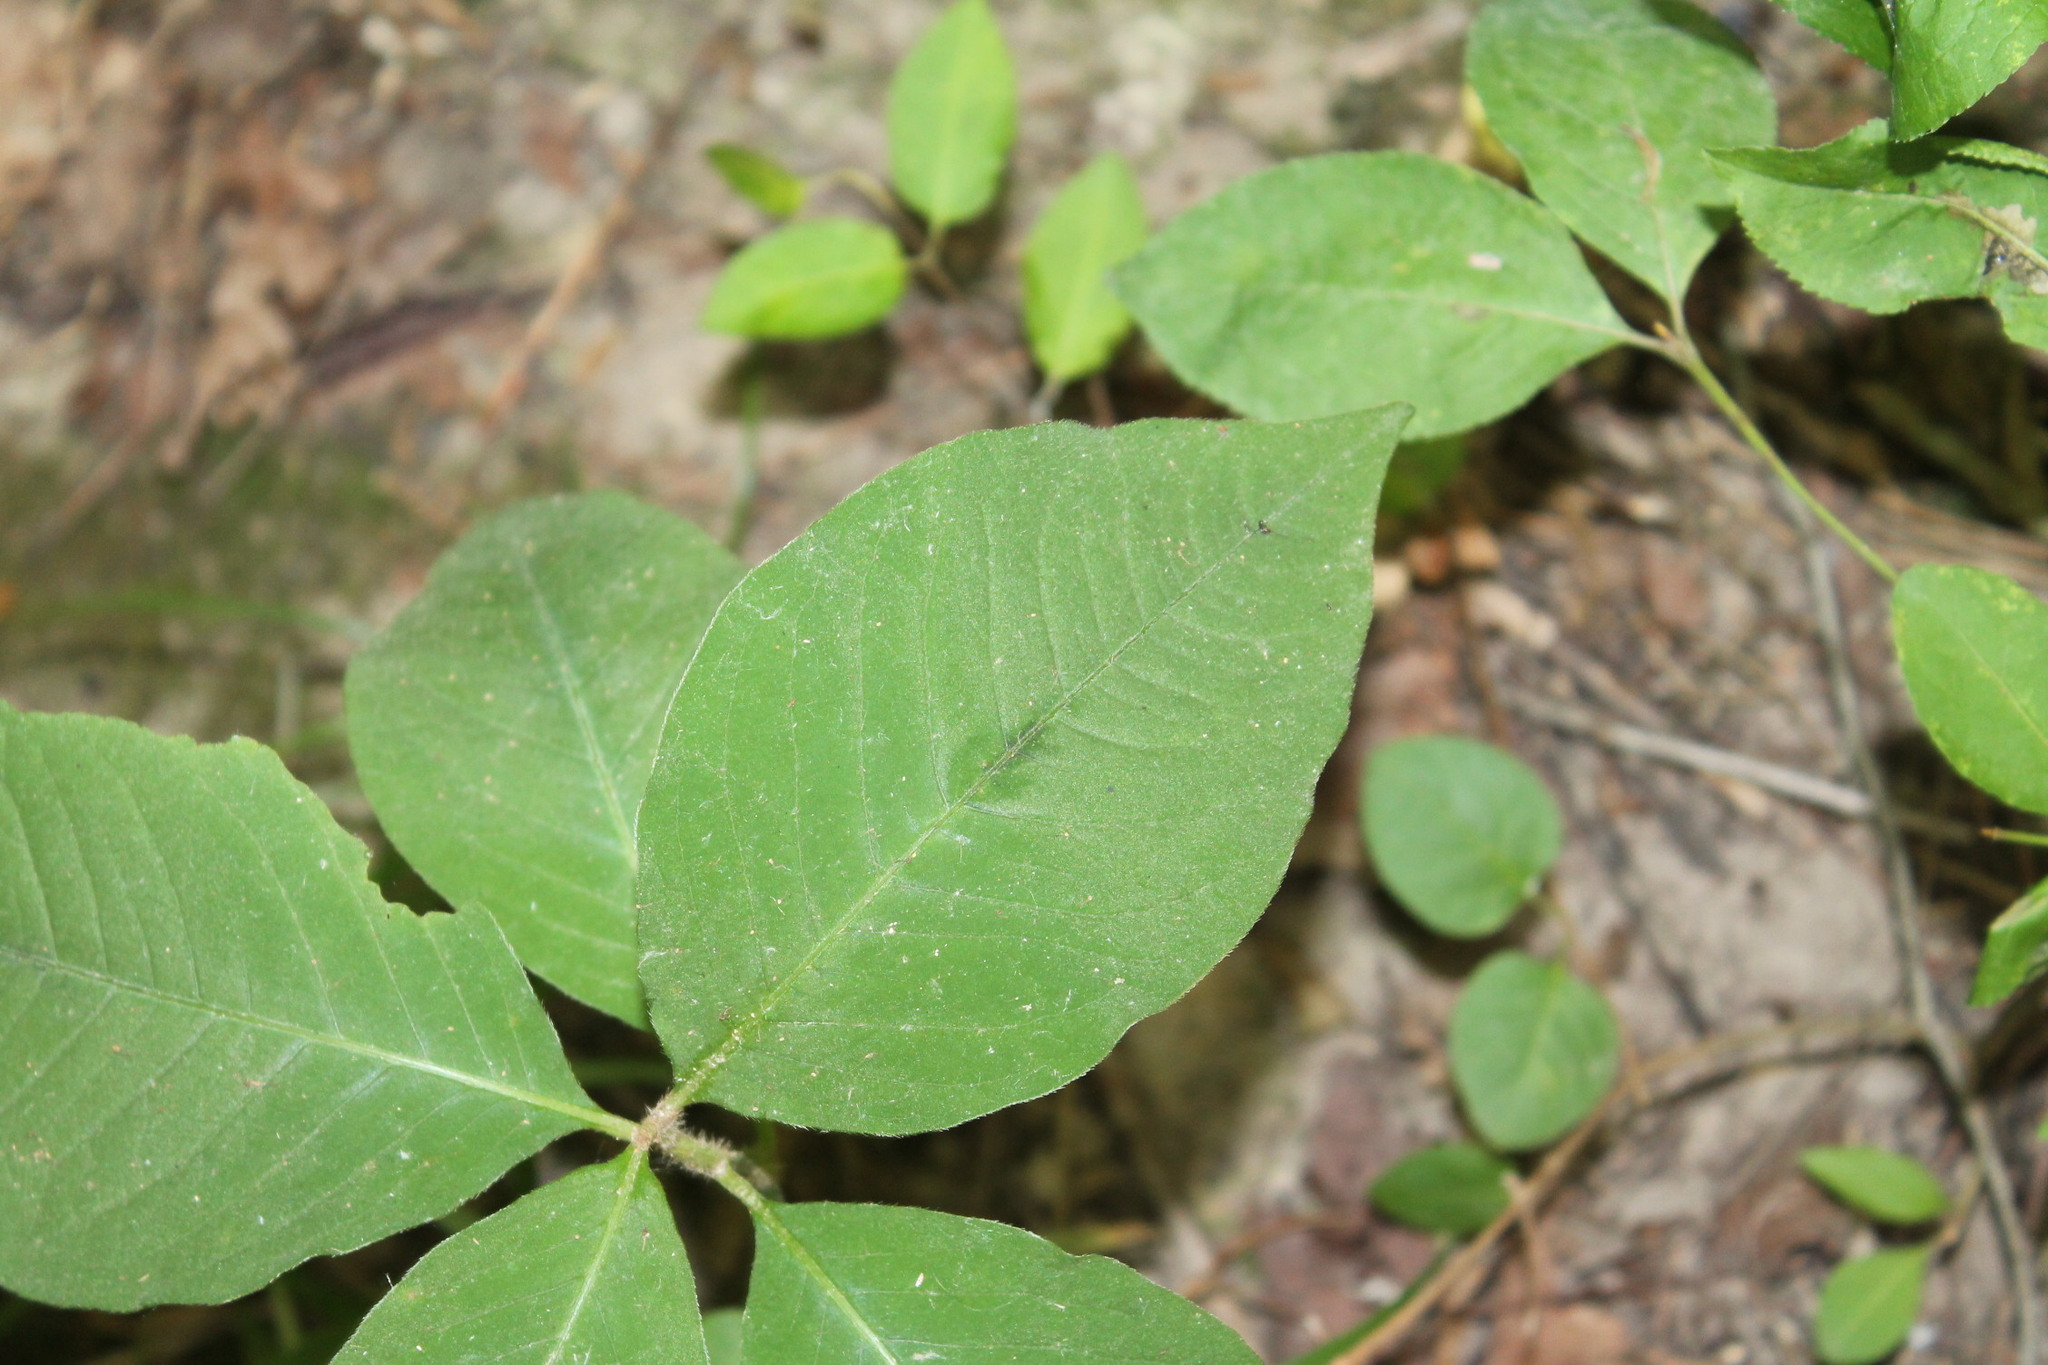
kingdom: Plantae
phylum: Tracheophyta
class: Magnoliopsida
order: Caryophyllales
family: Polygonaceae
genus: Persicaria
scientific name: Persicaria virginiana
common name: Jumpseed
